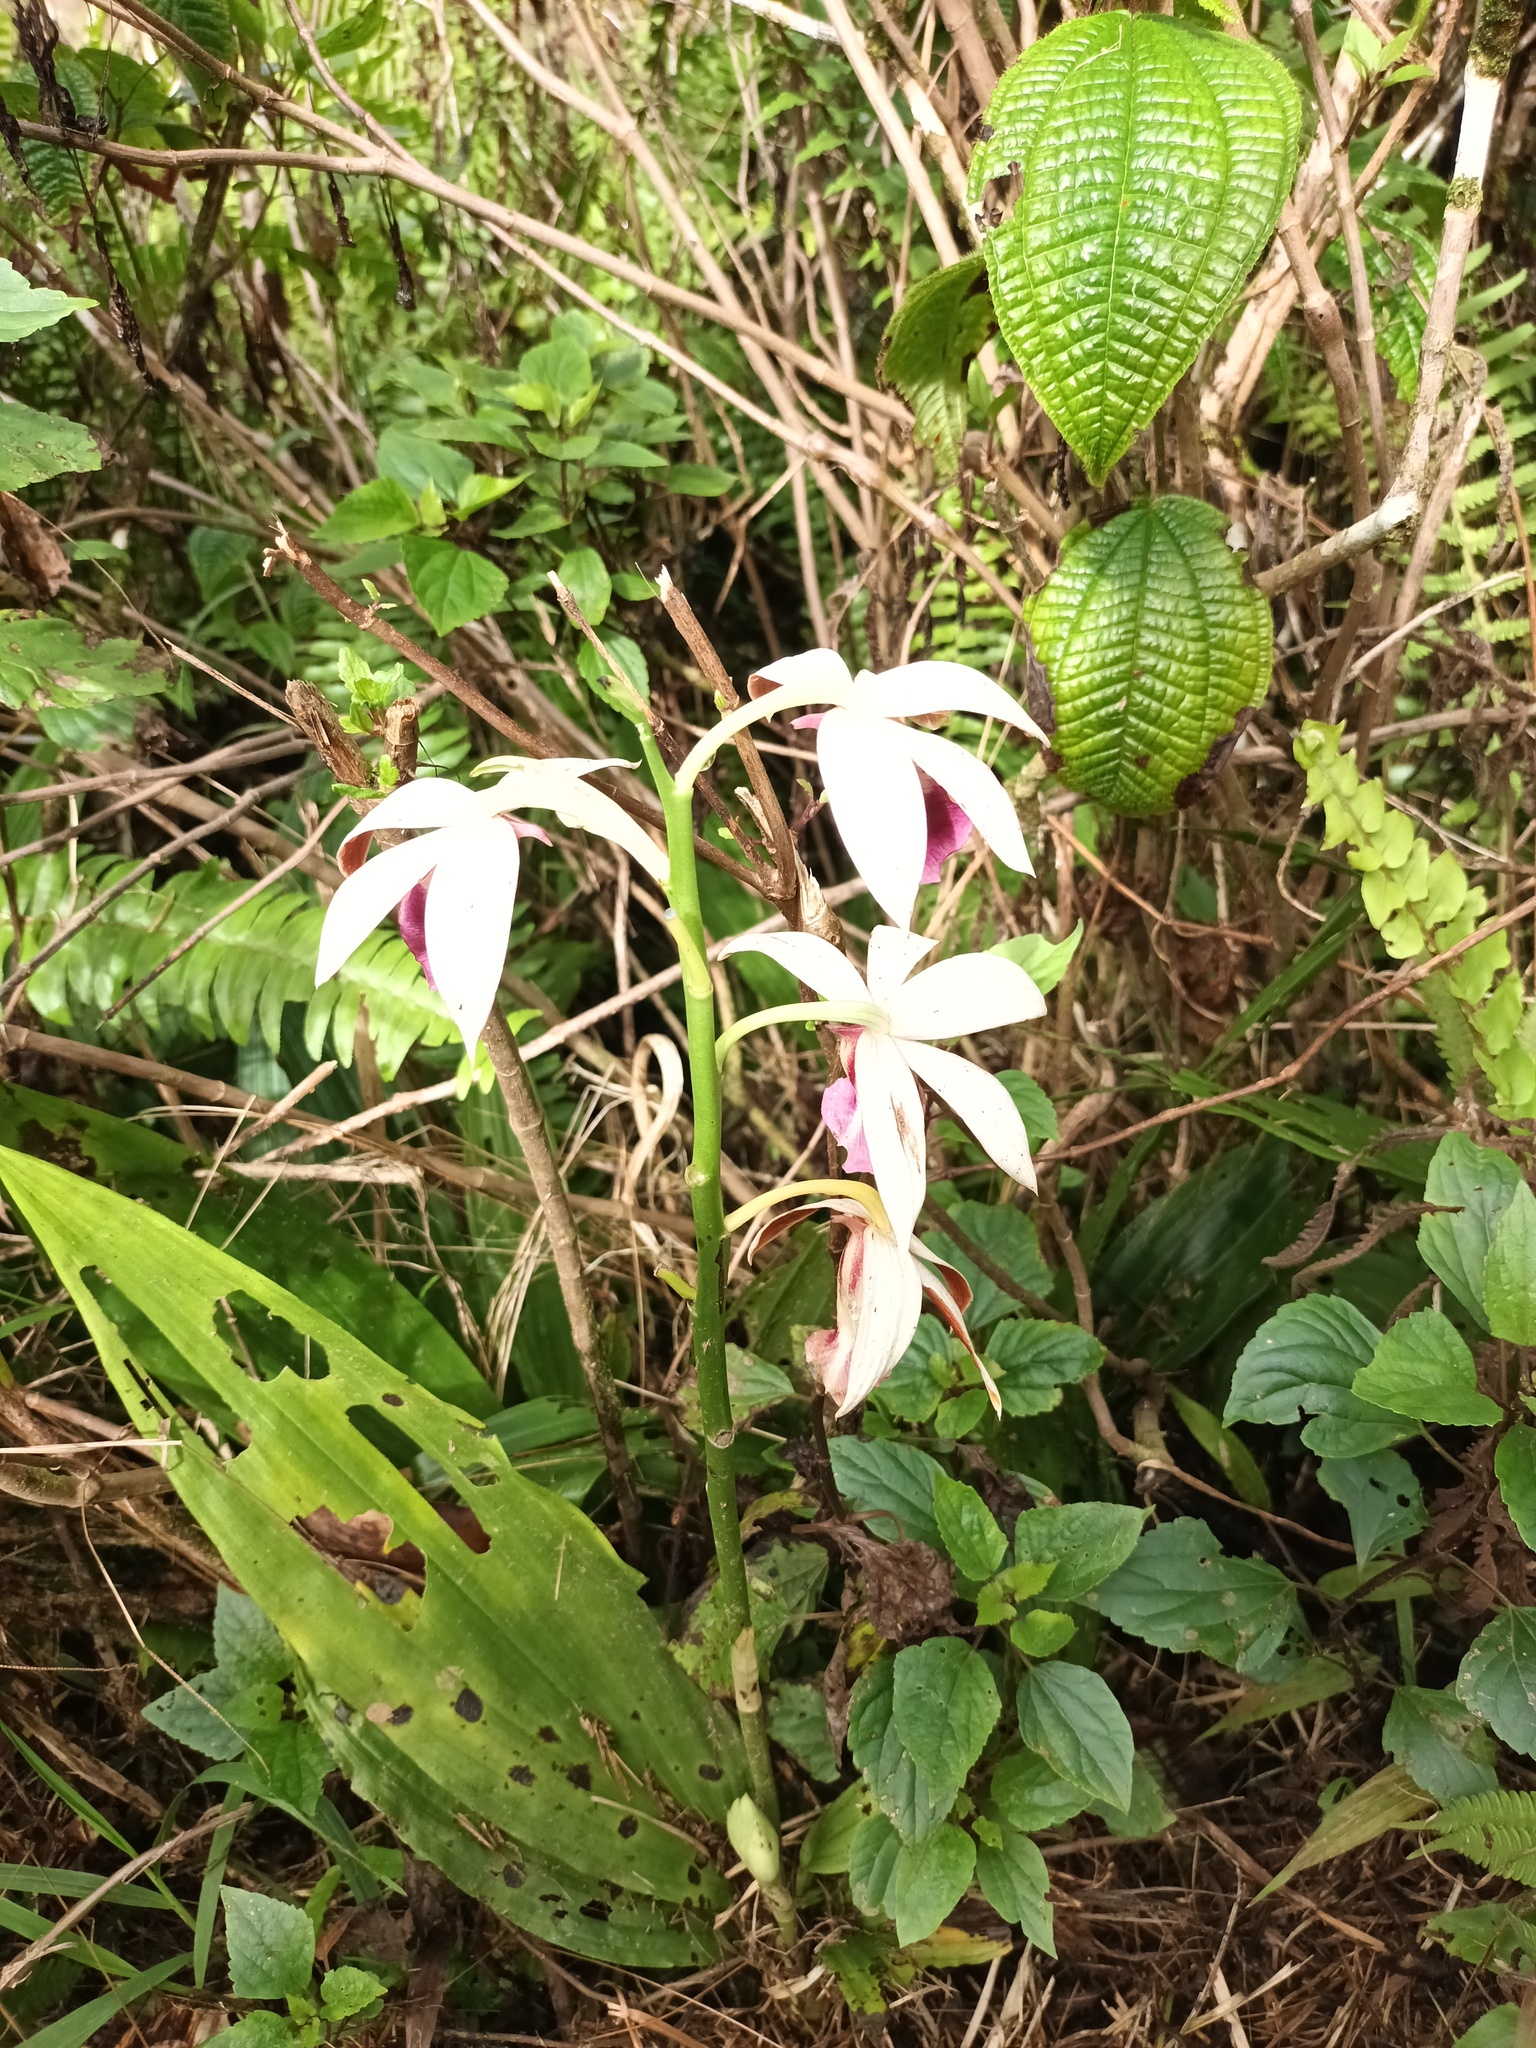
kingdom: Plantae
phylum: Tracheophyta
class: Liliopsida
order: Asparagales
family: Orchidaceae
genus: Calanthe
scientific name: Calanthe tankervilleae
